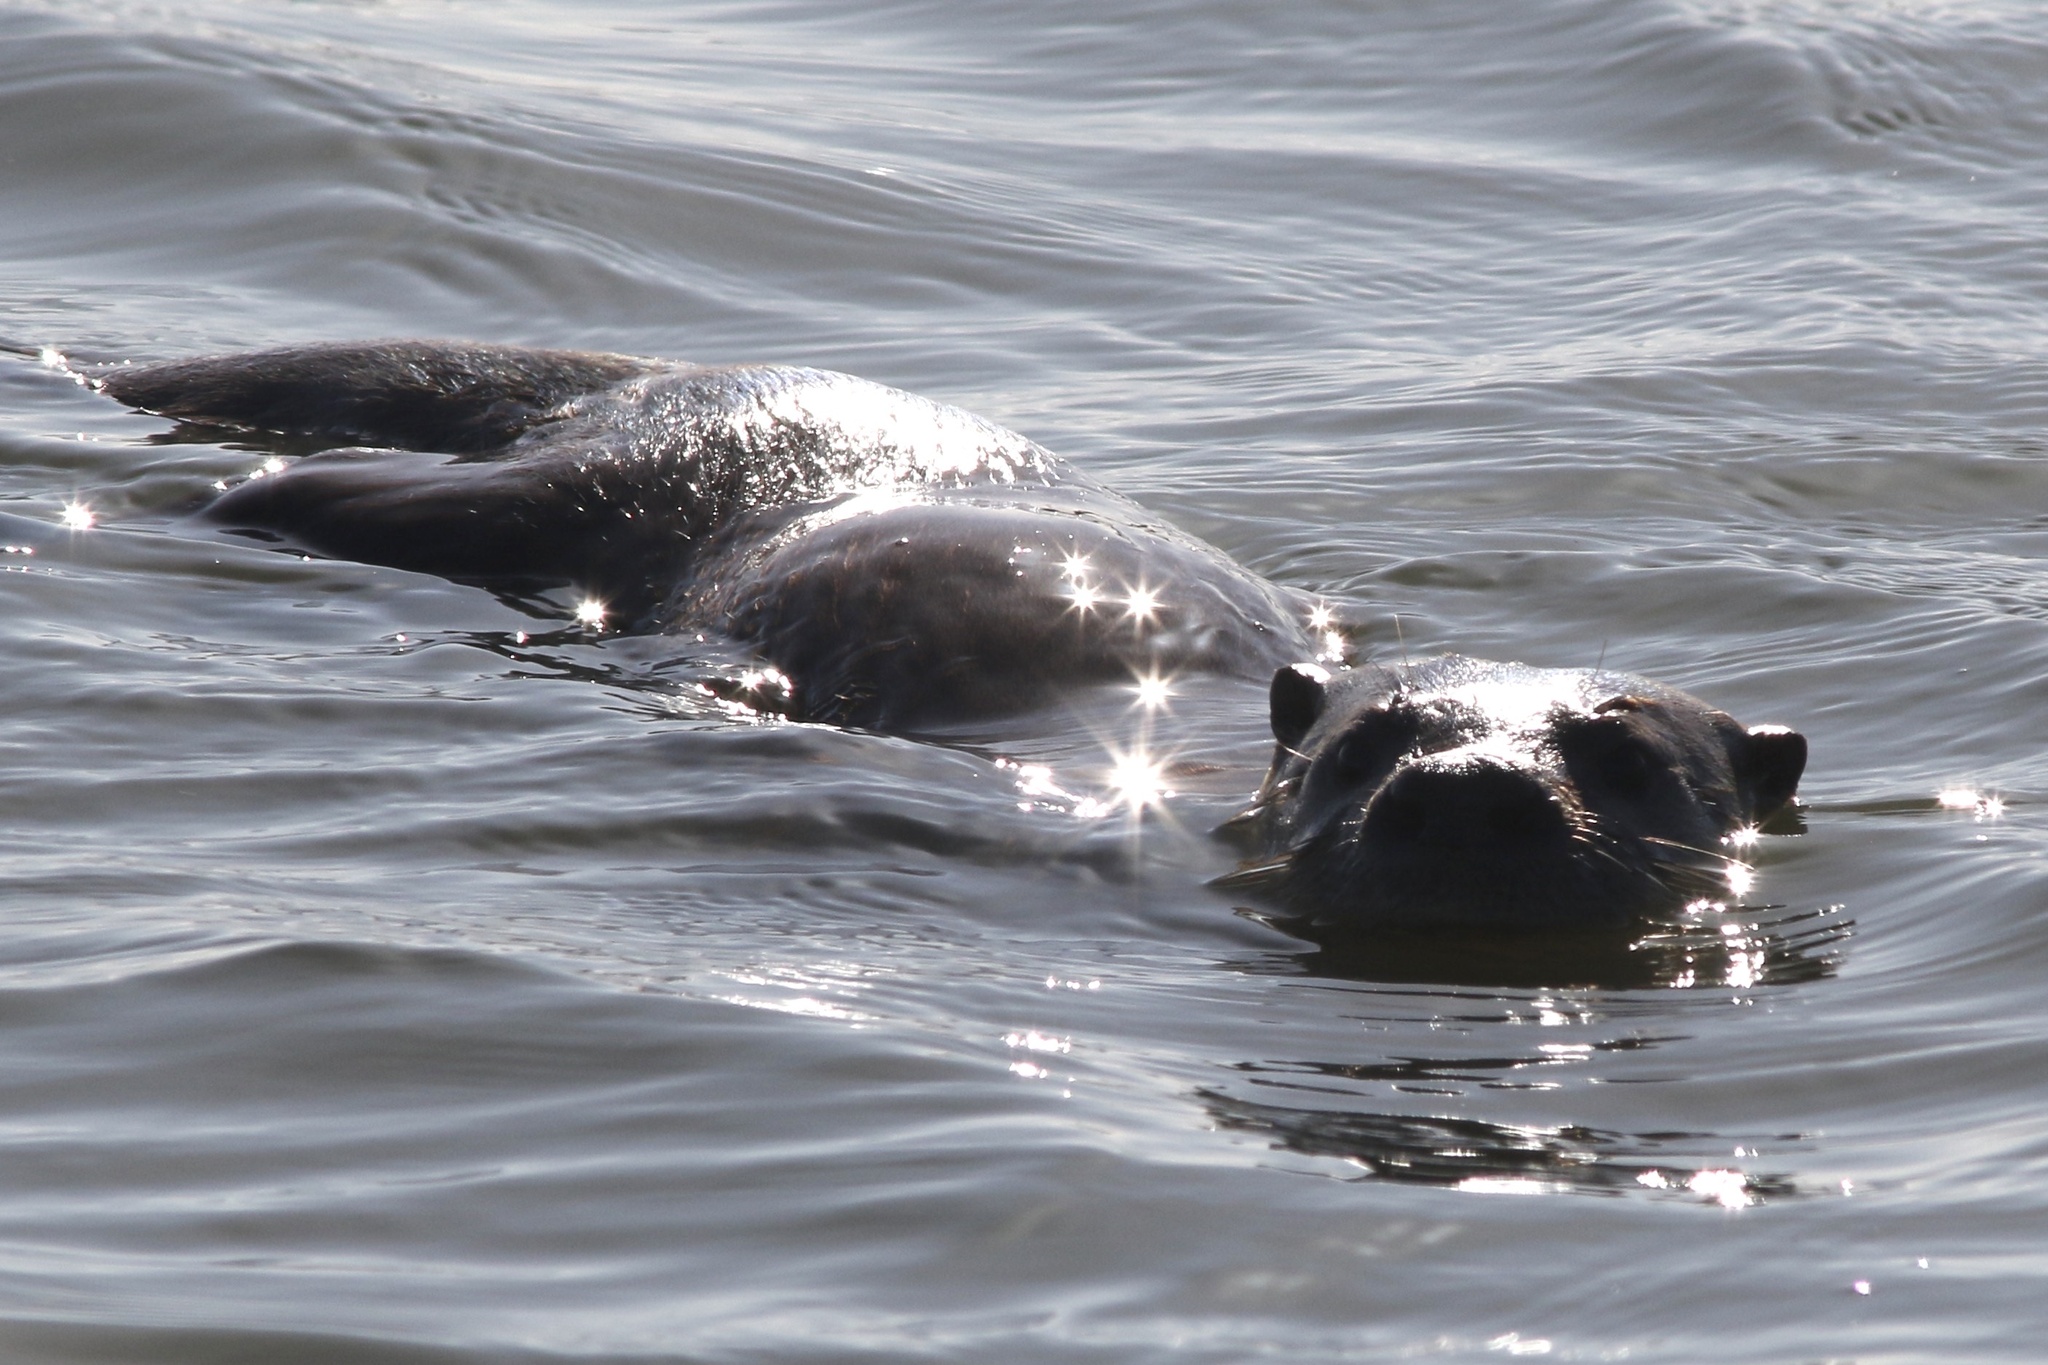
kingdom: Animalia
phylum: Chordata
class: Mammalia
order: Carnivora
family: Mustelidae
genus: Lontra
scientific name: Lontra canadensis
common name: North american river otter
